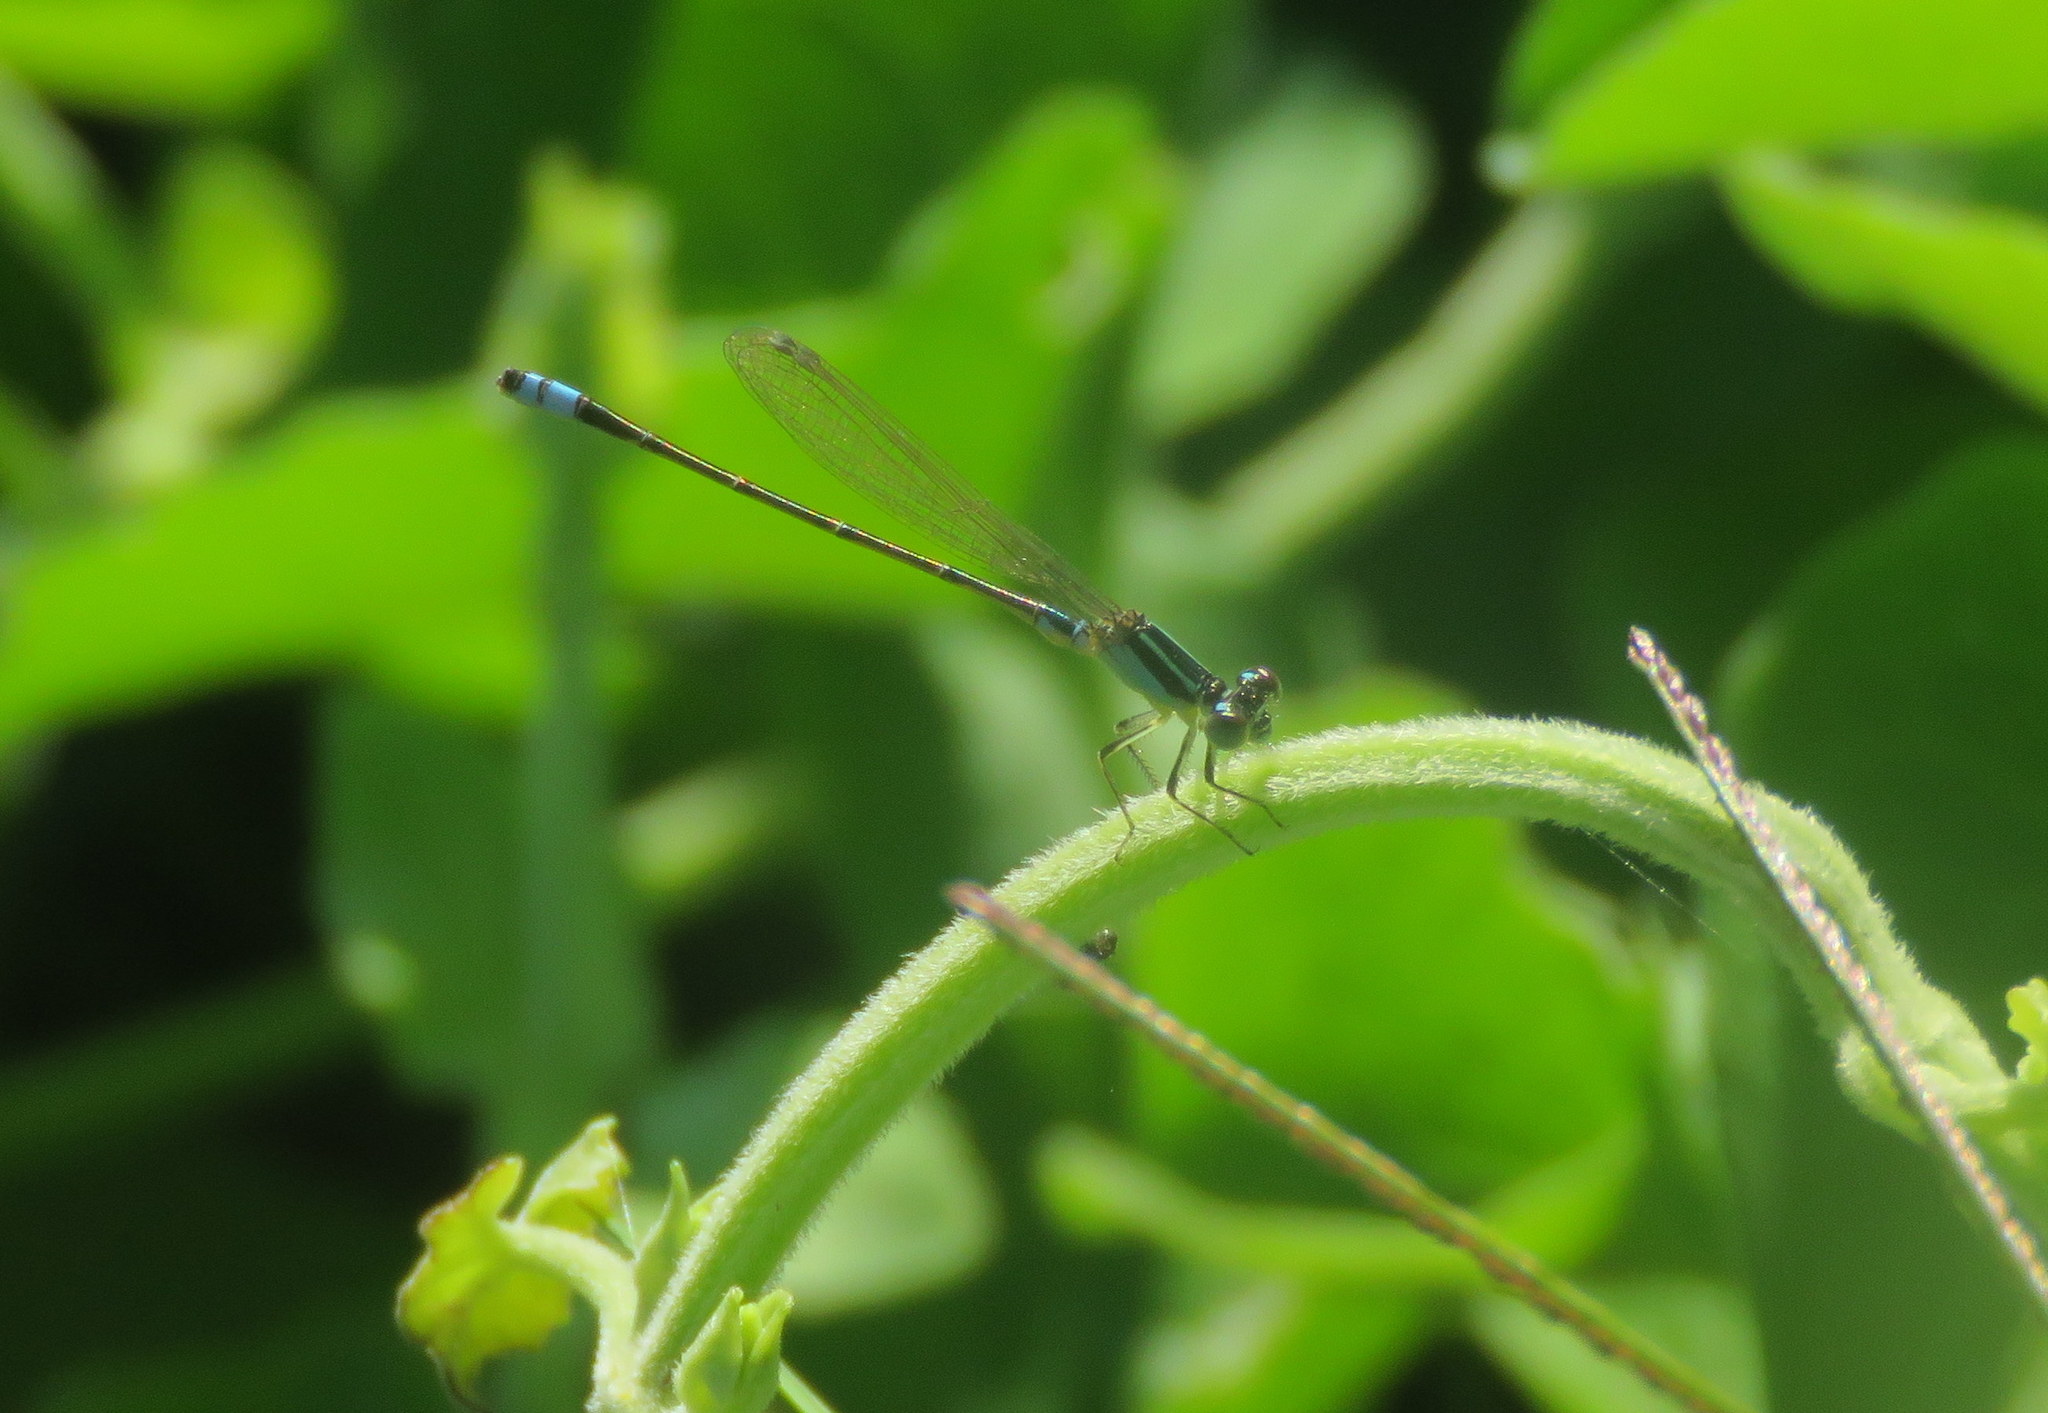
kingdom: Animalia
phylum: Arthropoda
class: Insecta
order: Odonata
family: Coenagrionidae
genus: Ischnura
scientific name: Ischnura fluviatilis
